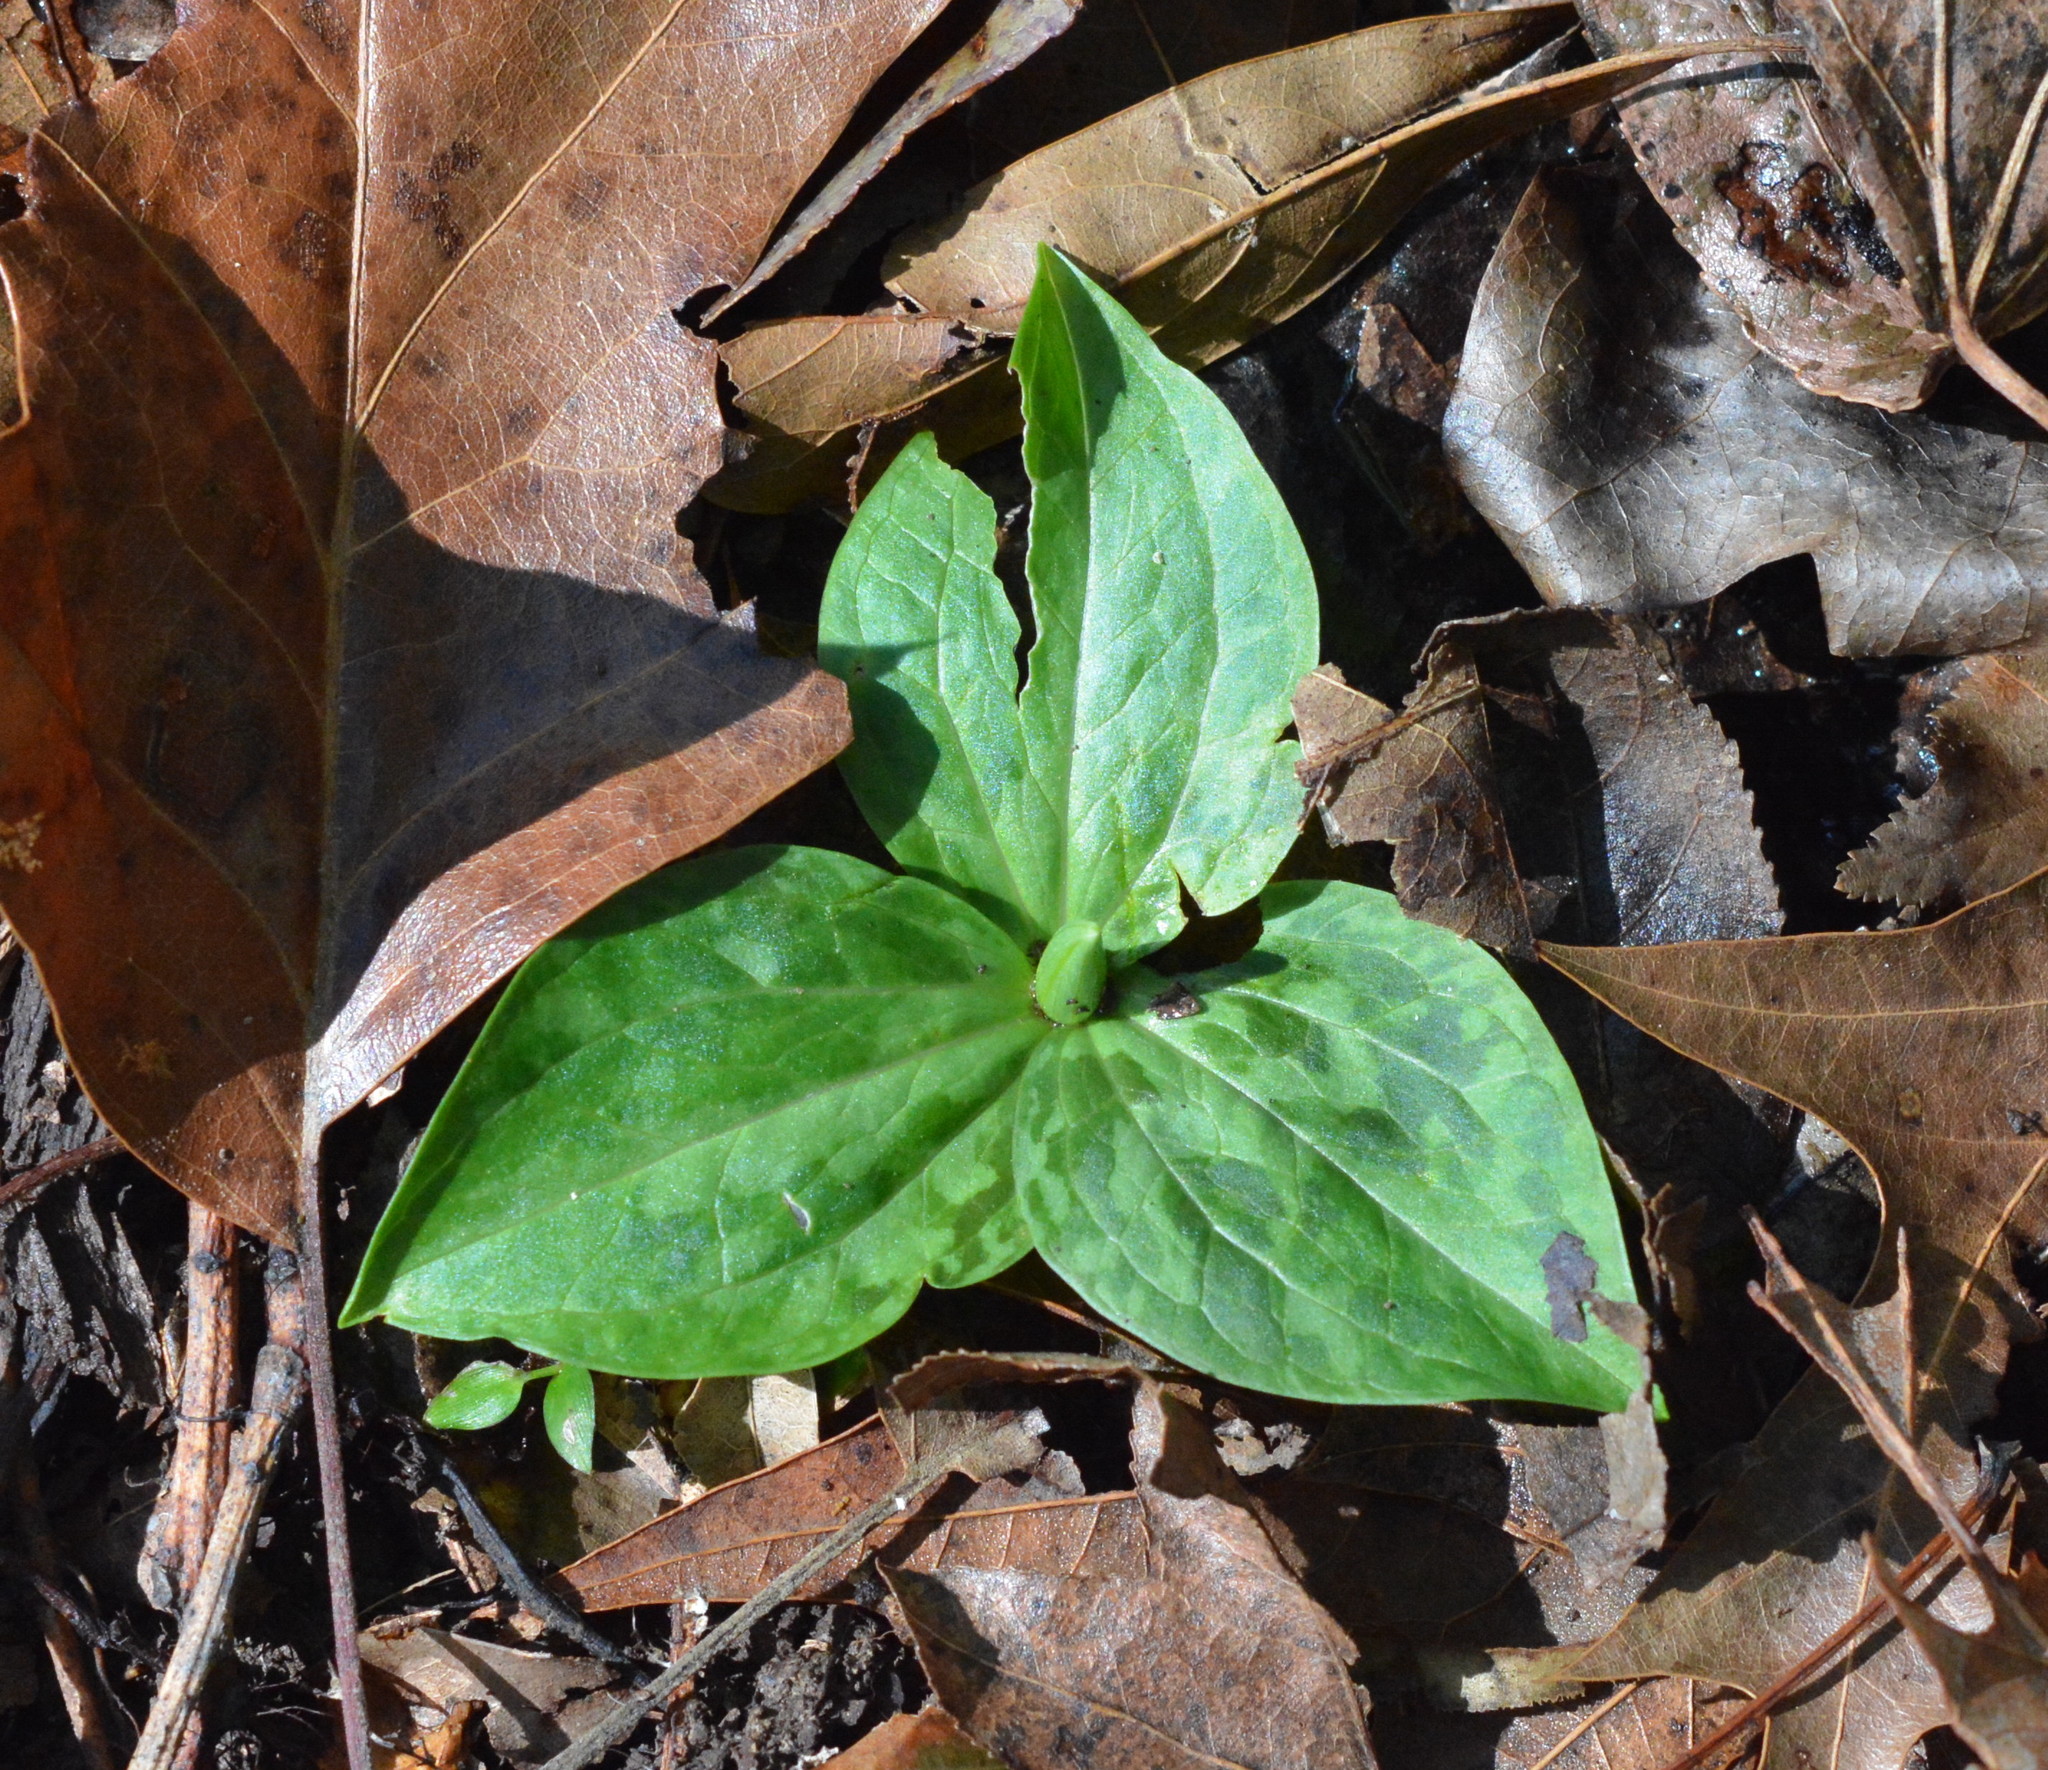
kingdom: Plantae
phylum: Tracheophyta
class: Liliopsida
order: Liliales
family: Melanthiaceae
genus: Trillium
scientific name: Trillium foetidissimum
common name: Mississippi river trillium
